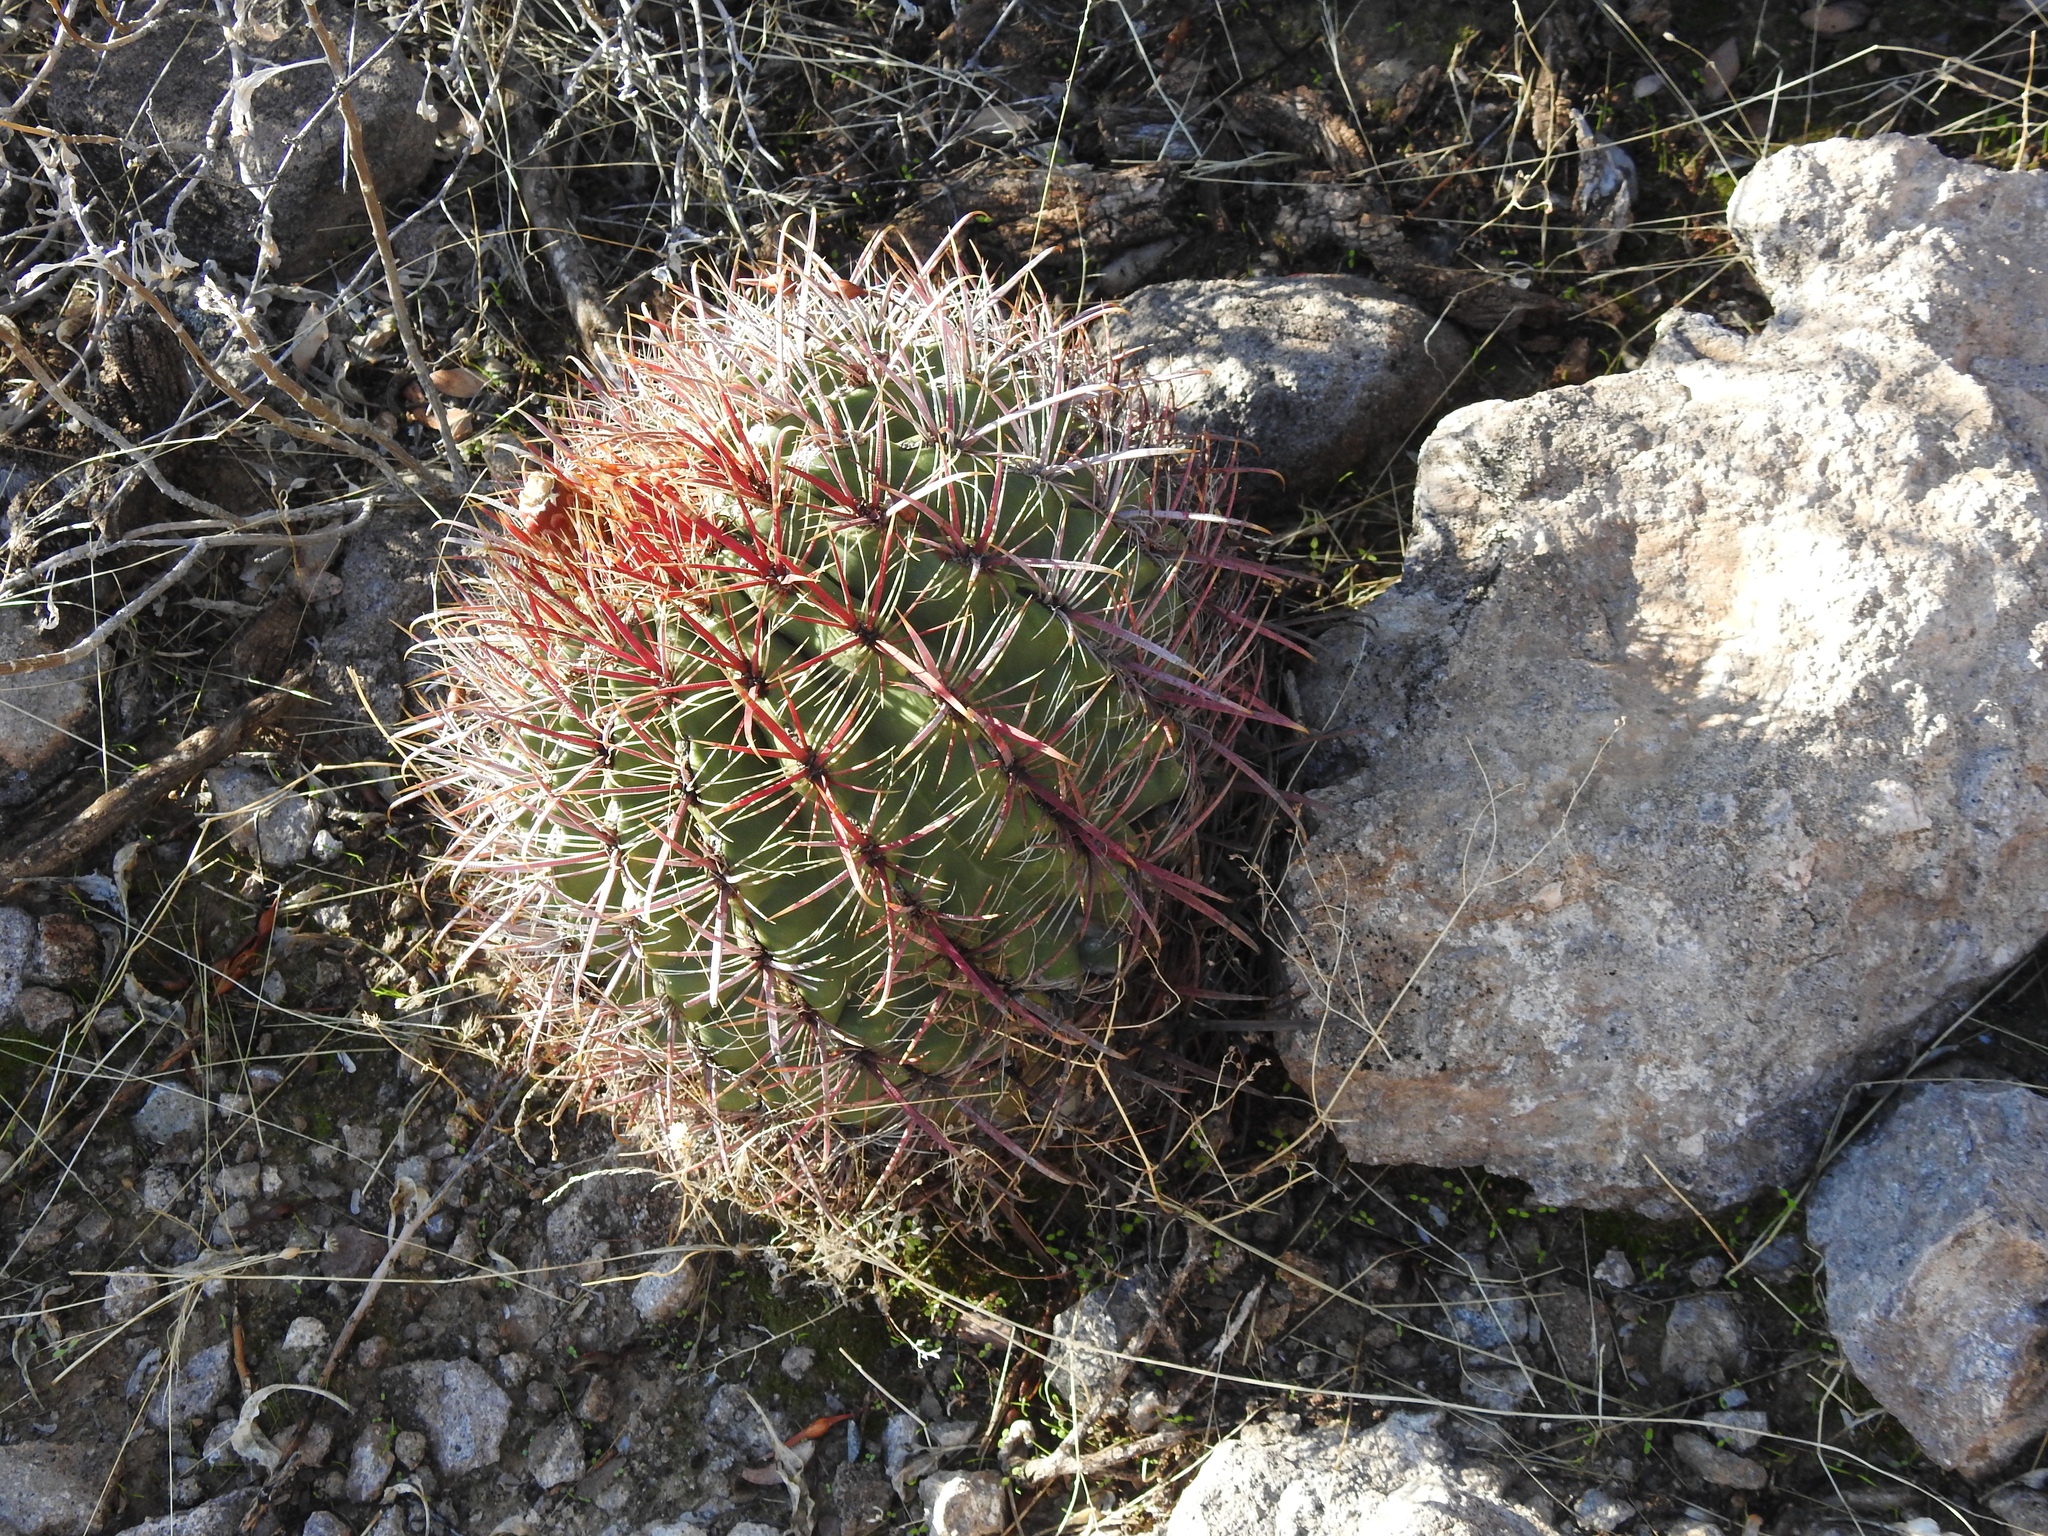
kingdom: Plantae
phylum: Tracheophyta
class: Magnoliopsida
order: Caryophyllales
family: Cactaceae
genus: Ferocactus
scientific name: Ferocactus cylindraceus
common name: California barrel cactus
